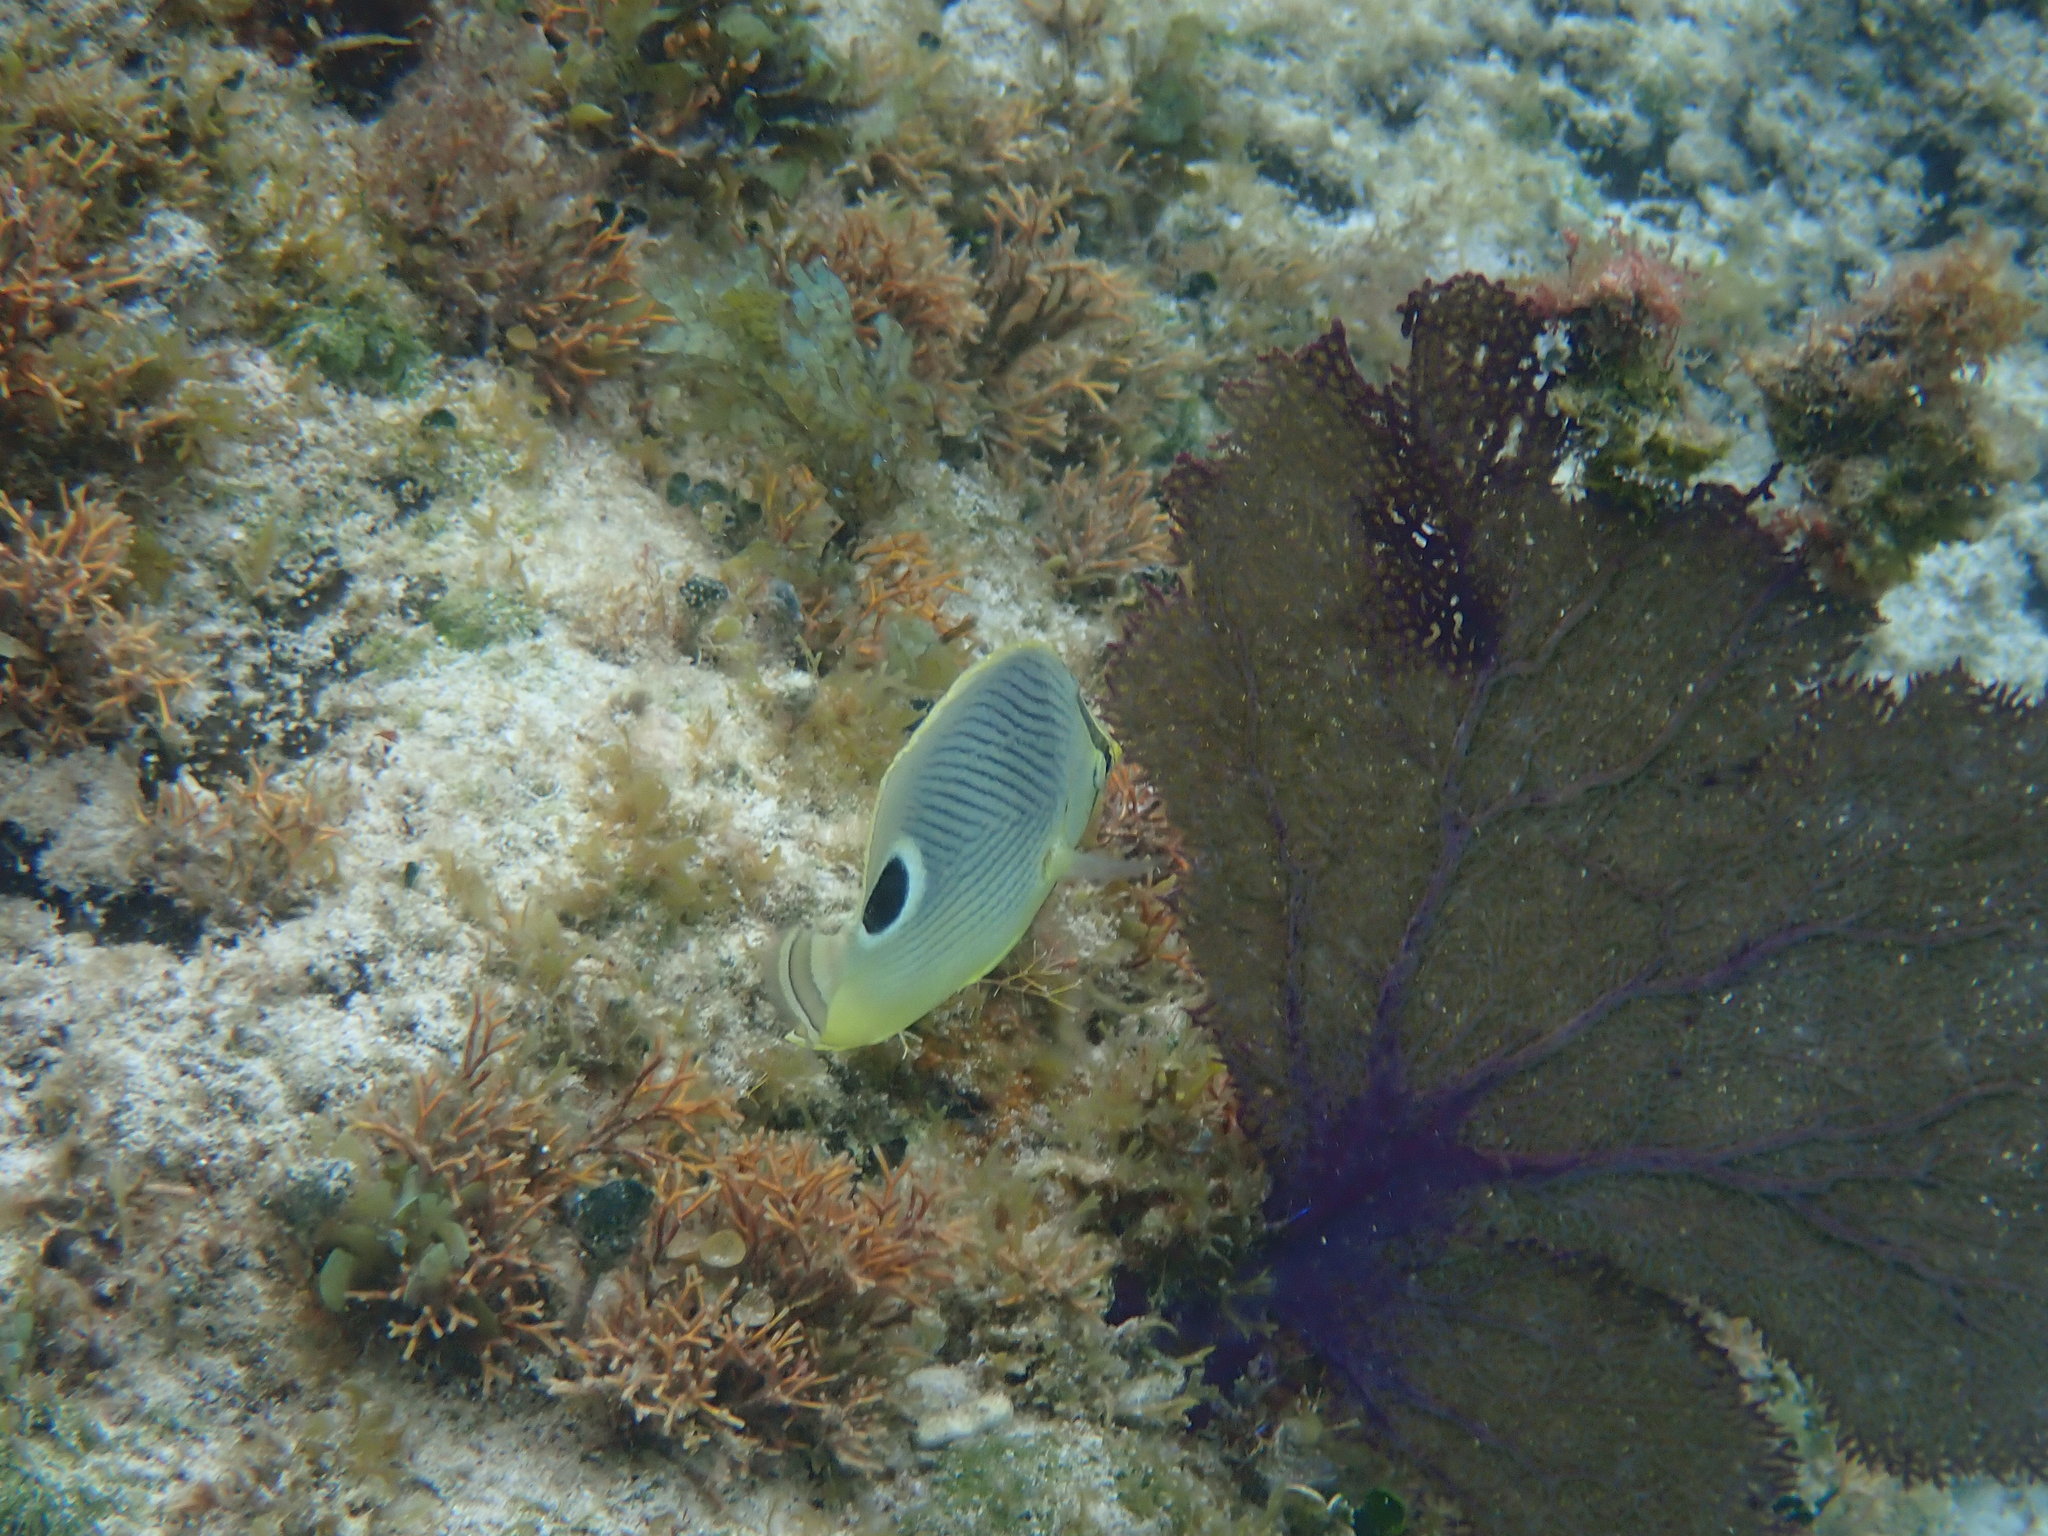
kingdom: Animalia
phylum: Chordata
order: Perciformes
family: Chaetodontidae
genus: Chaetodon
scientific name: Chaetodon capistratus
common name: Kete
